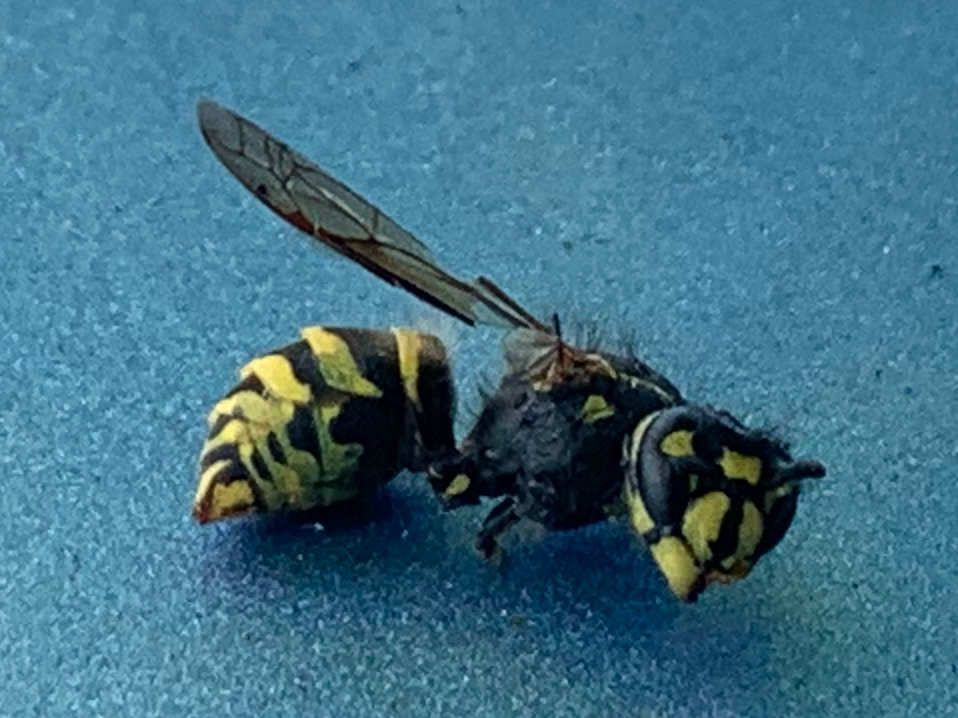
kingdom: Animalia
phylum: Arthropoda
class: Insecta
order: Hymenoptera
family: Vespidae
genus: Vespula
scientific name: Vespula alascensis
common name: Alaska yellowjacket
